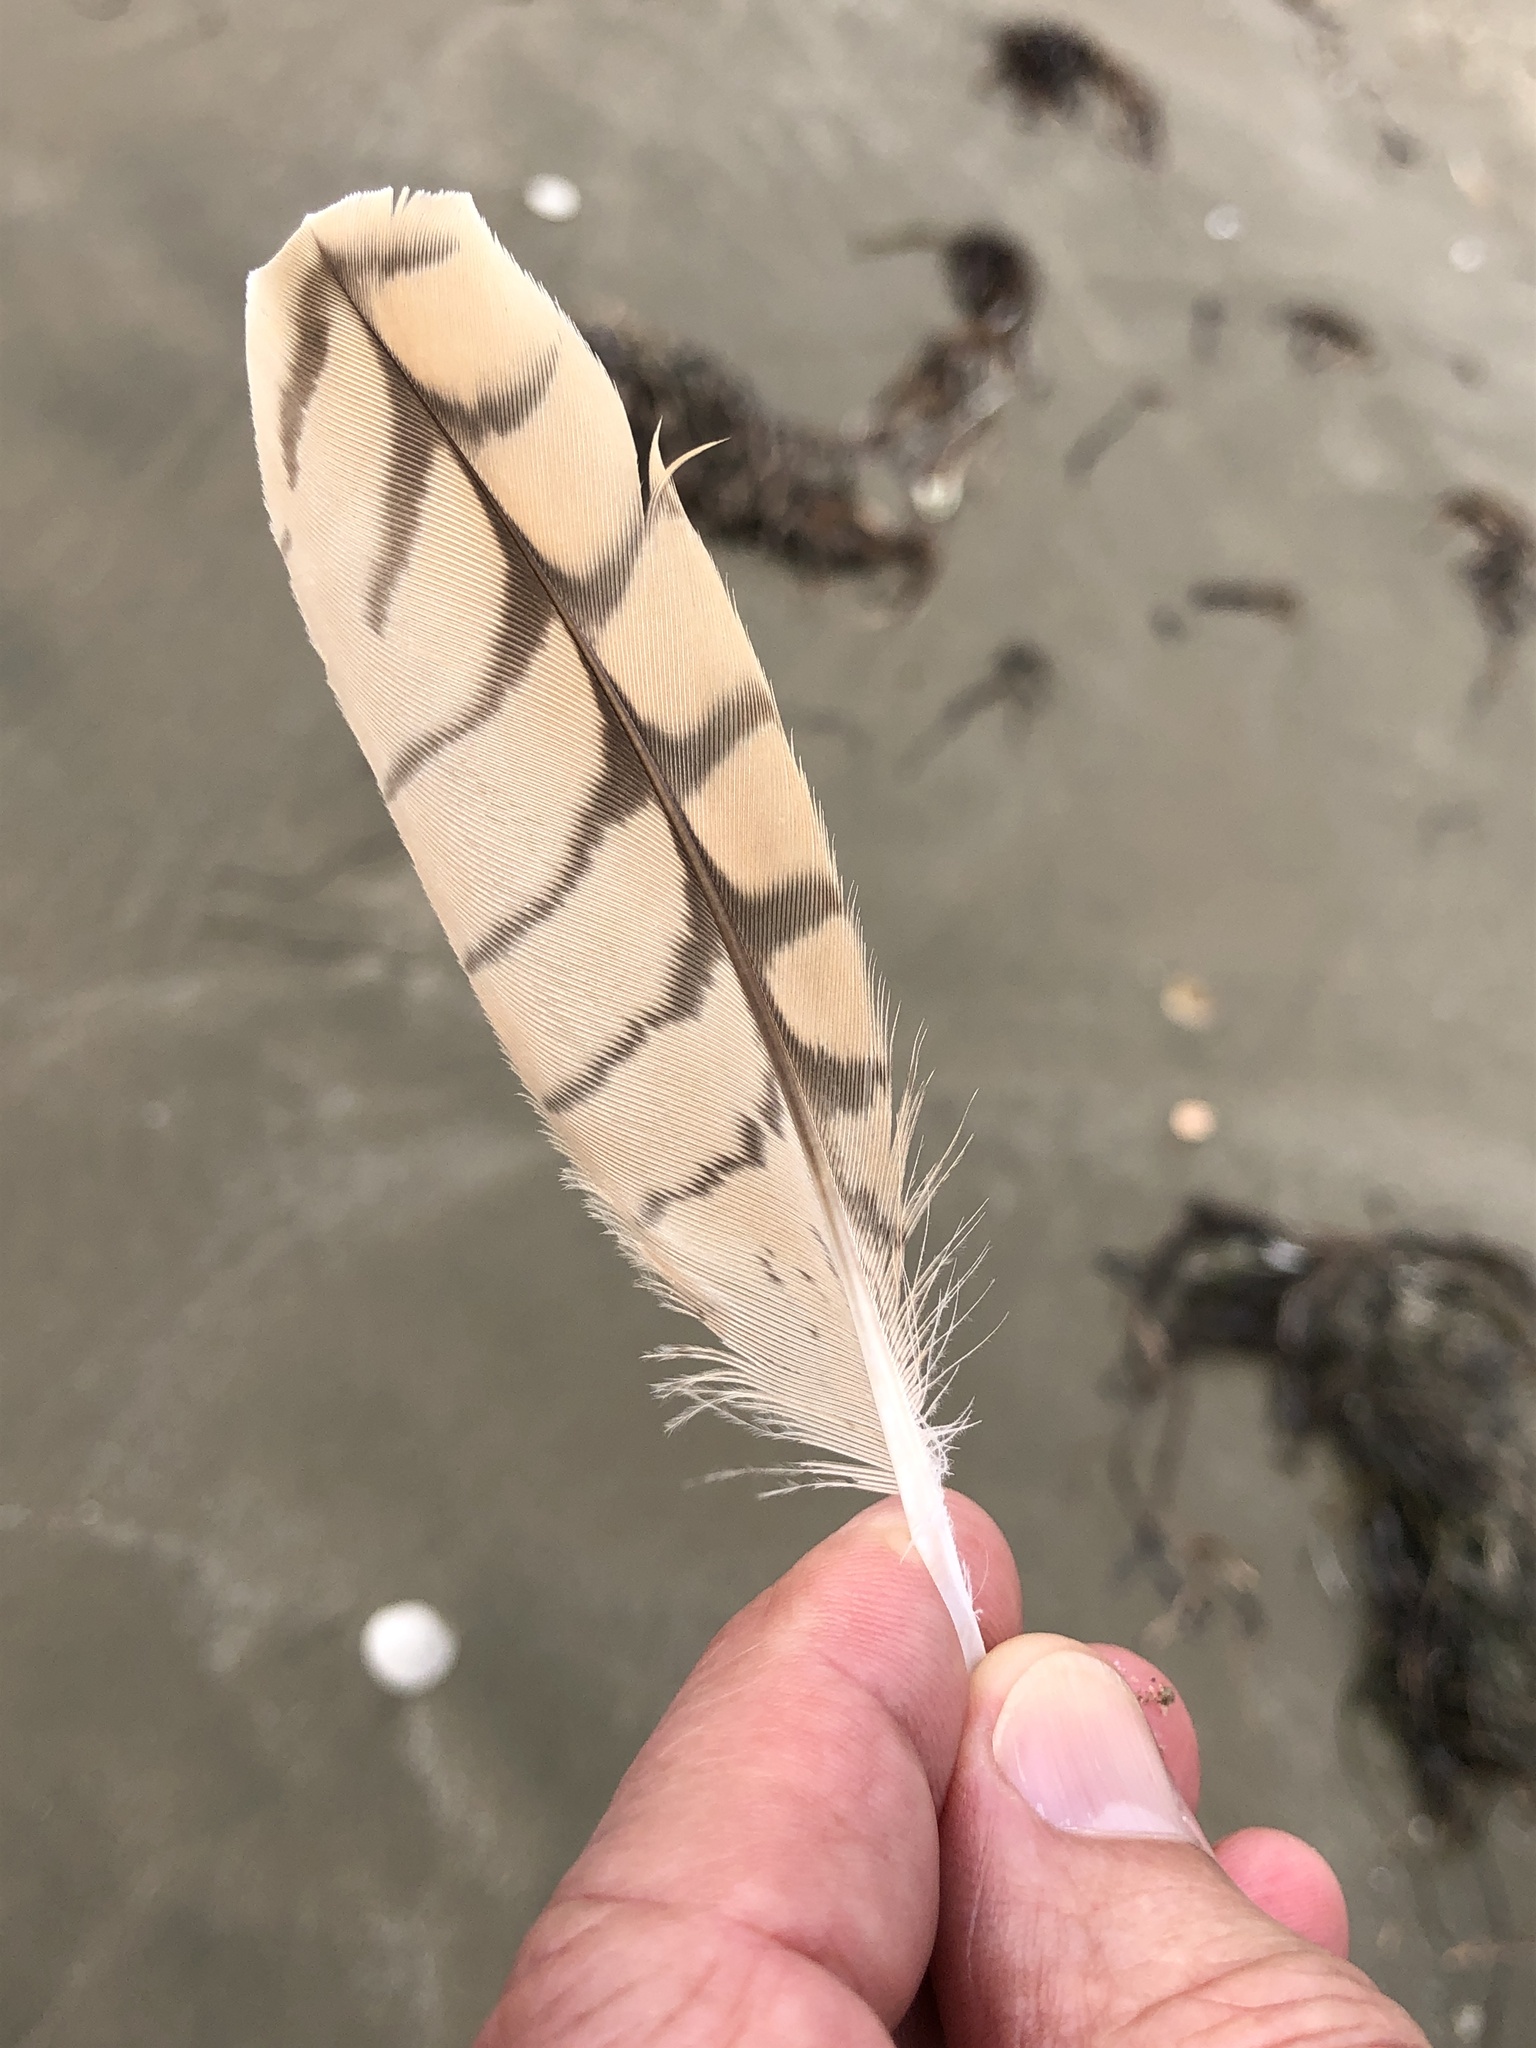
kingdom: Animalia
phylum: Chordata
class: Aves
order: Charadriiformes
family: Scolopacidae
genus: Numenius
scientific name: Numenius americanus
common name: Long-billed curlew
